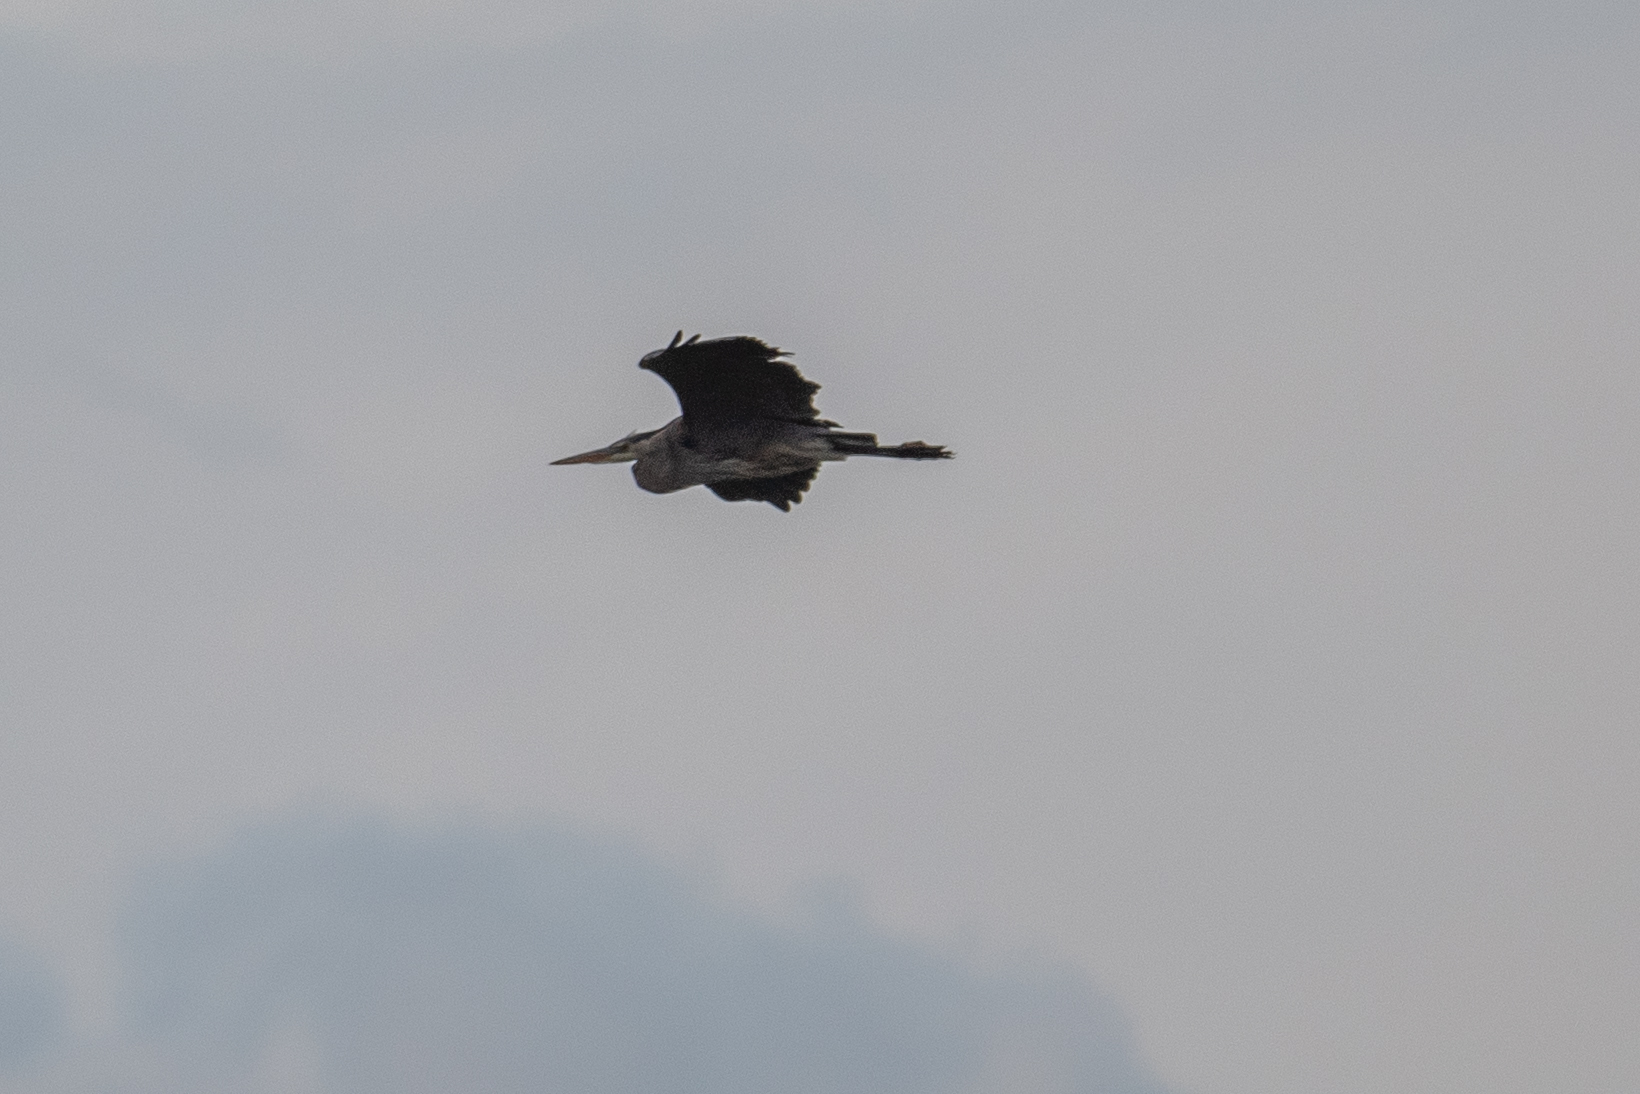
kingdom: Animalia
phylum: Chordata
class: Aves
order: Pelecaniformes
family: Ardeidae
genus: Ardea
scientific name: Ardea herodias
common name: Great blue heron
